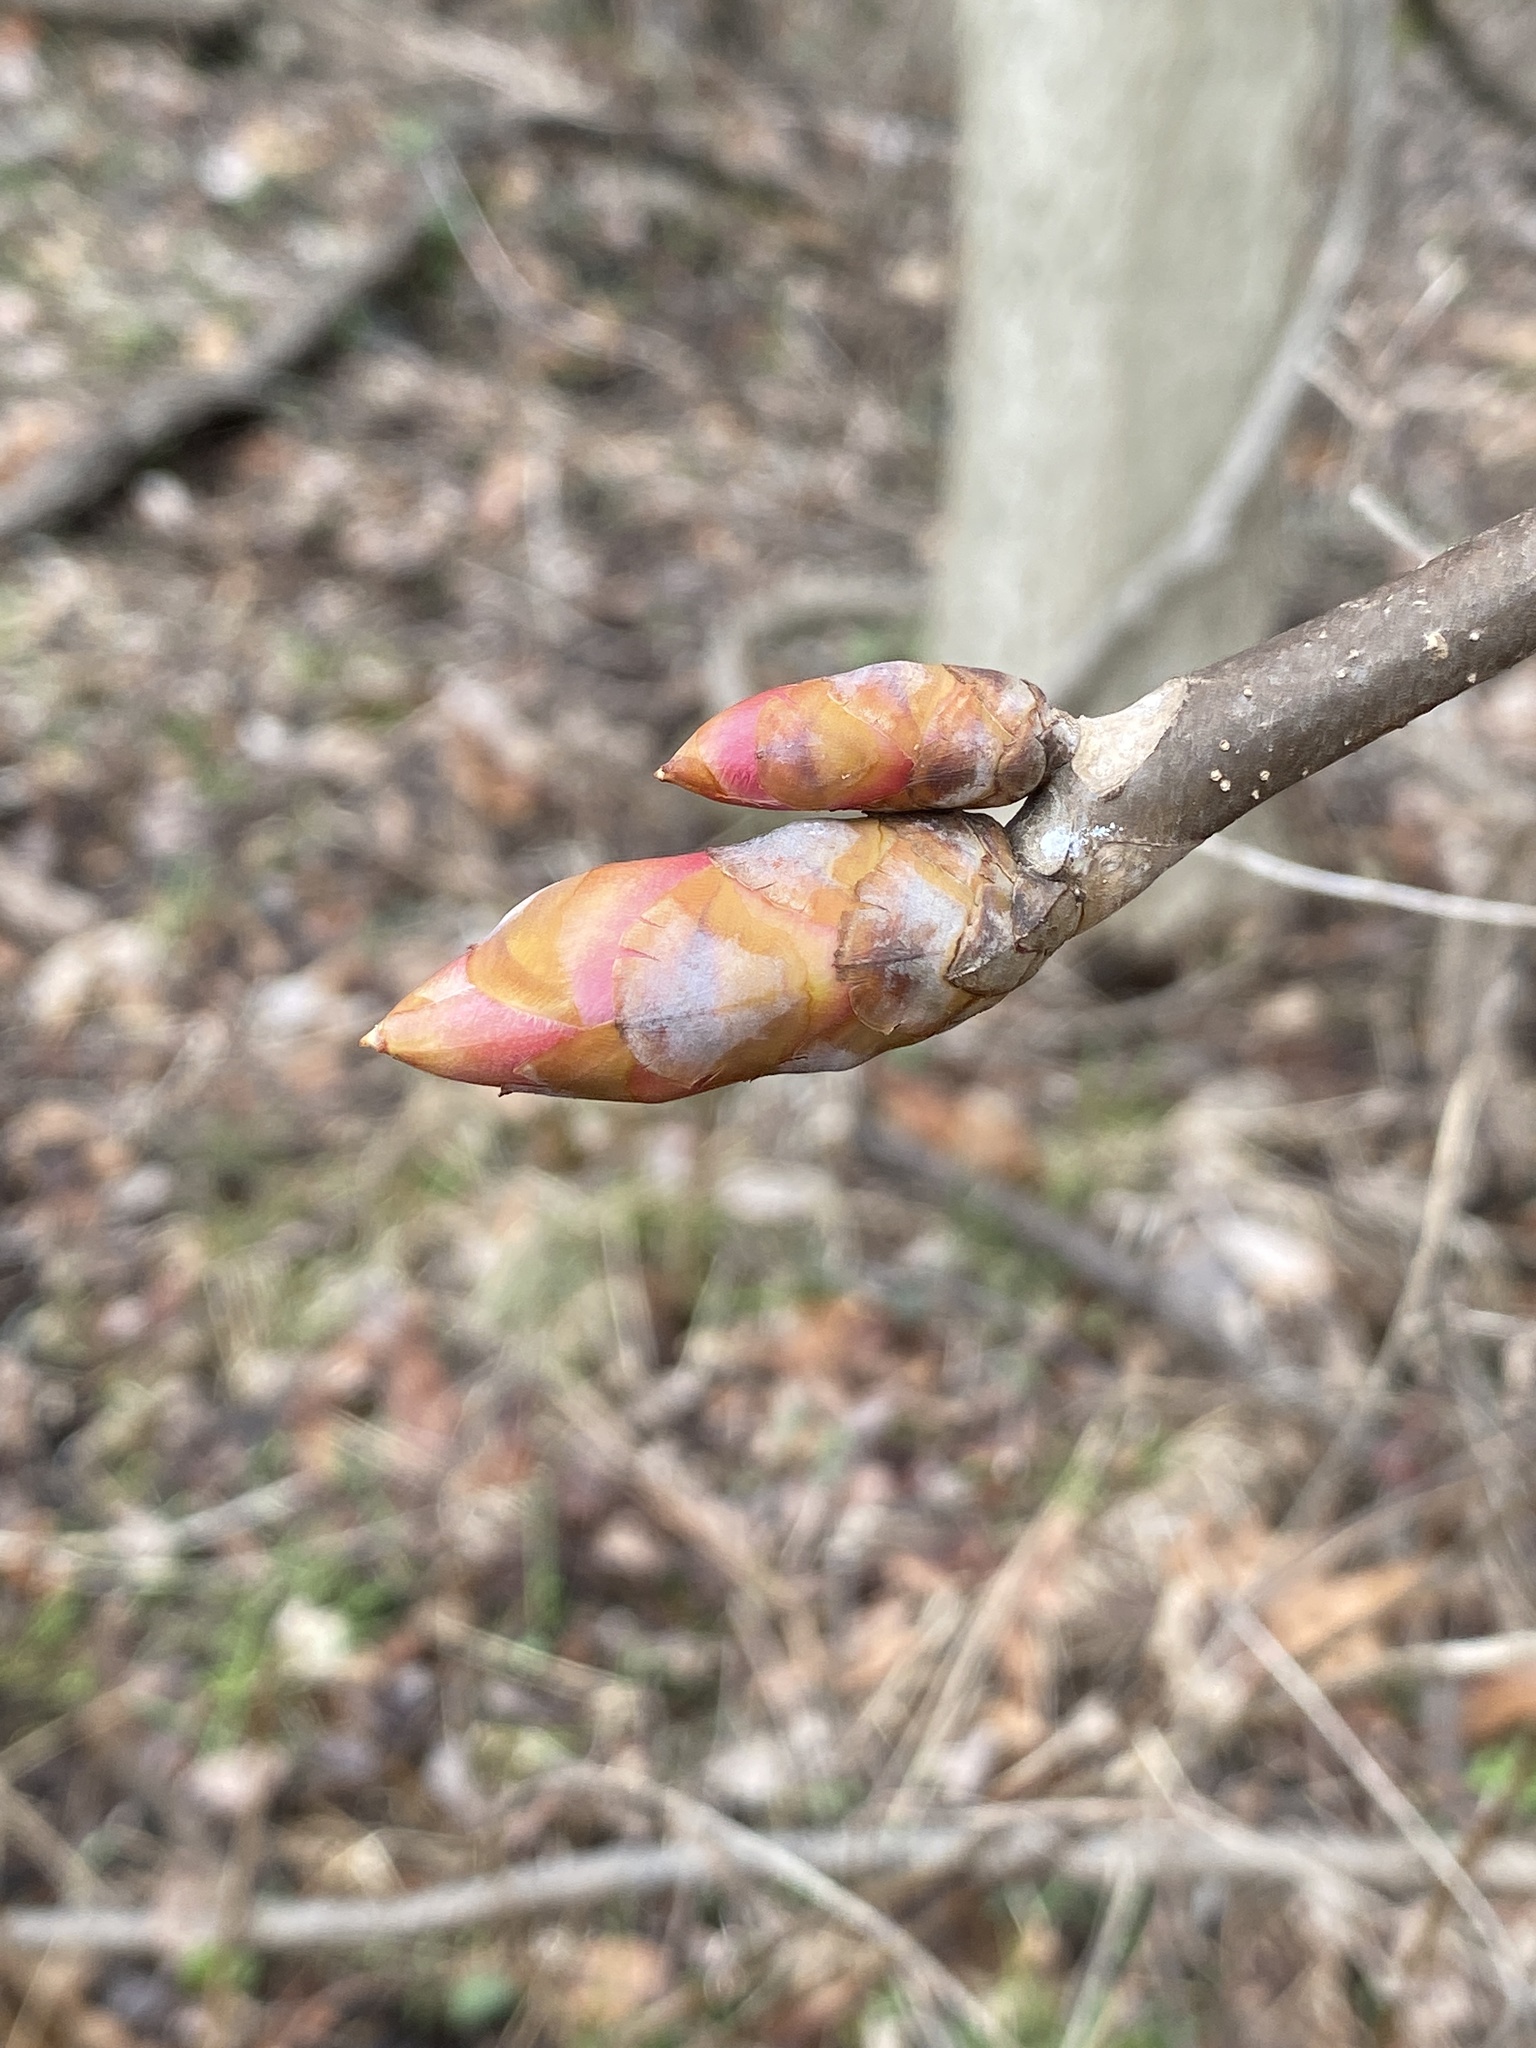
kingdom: Plantae
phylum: Tracheophyta
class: Magnoliopsida
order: Sapindales
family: Sapindaceae
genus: Aesculus
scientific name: Aesculus flava
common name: Yellow buckeye
